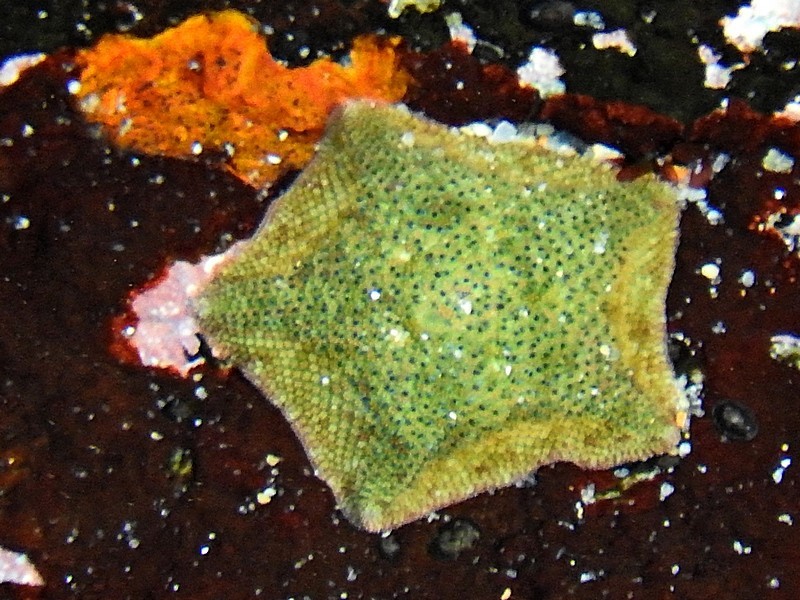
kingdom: Animalia
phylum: Echinodermata
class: Asteroidea
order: Valvatida
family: Asterinidae
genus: Parvulastra
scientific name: Parvulastra exigua
